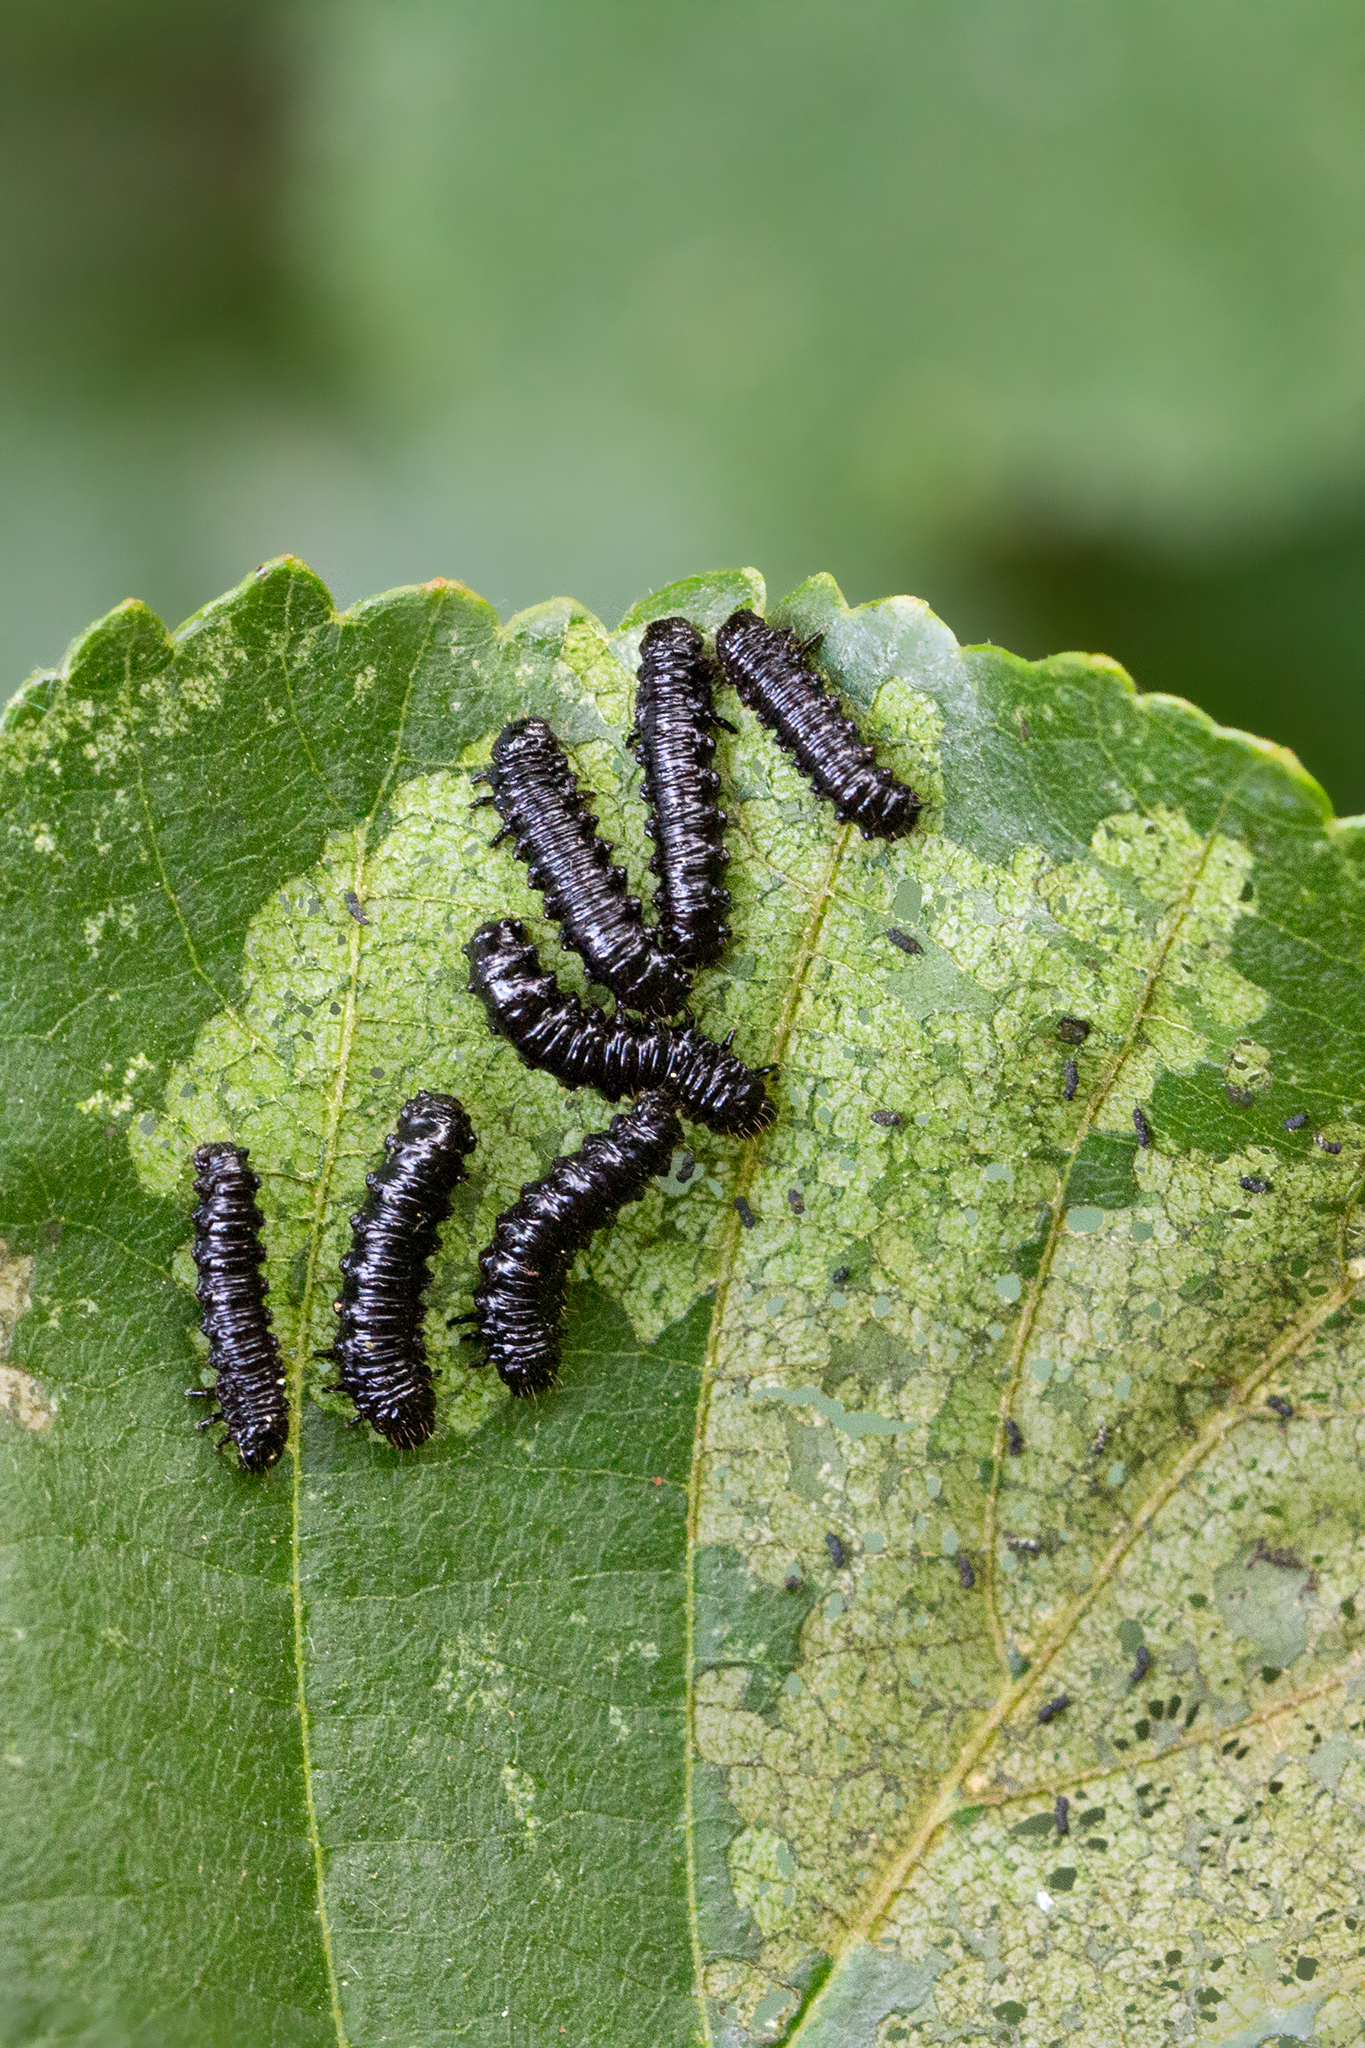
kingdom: Animalia
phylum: Arthropoda
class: Insecta
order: Coleoptera
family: Chrysomelidae
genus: Agelastica
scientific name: Agelastica alni
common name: Alder leaf beetle
